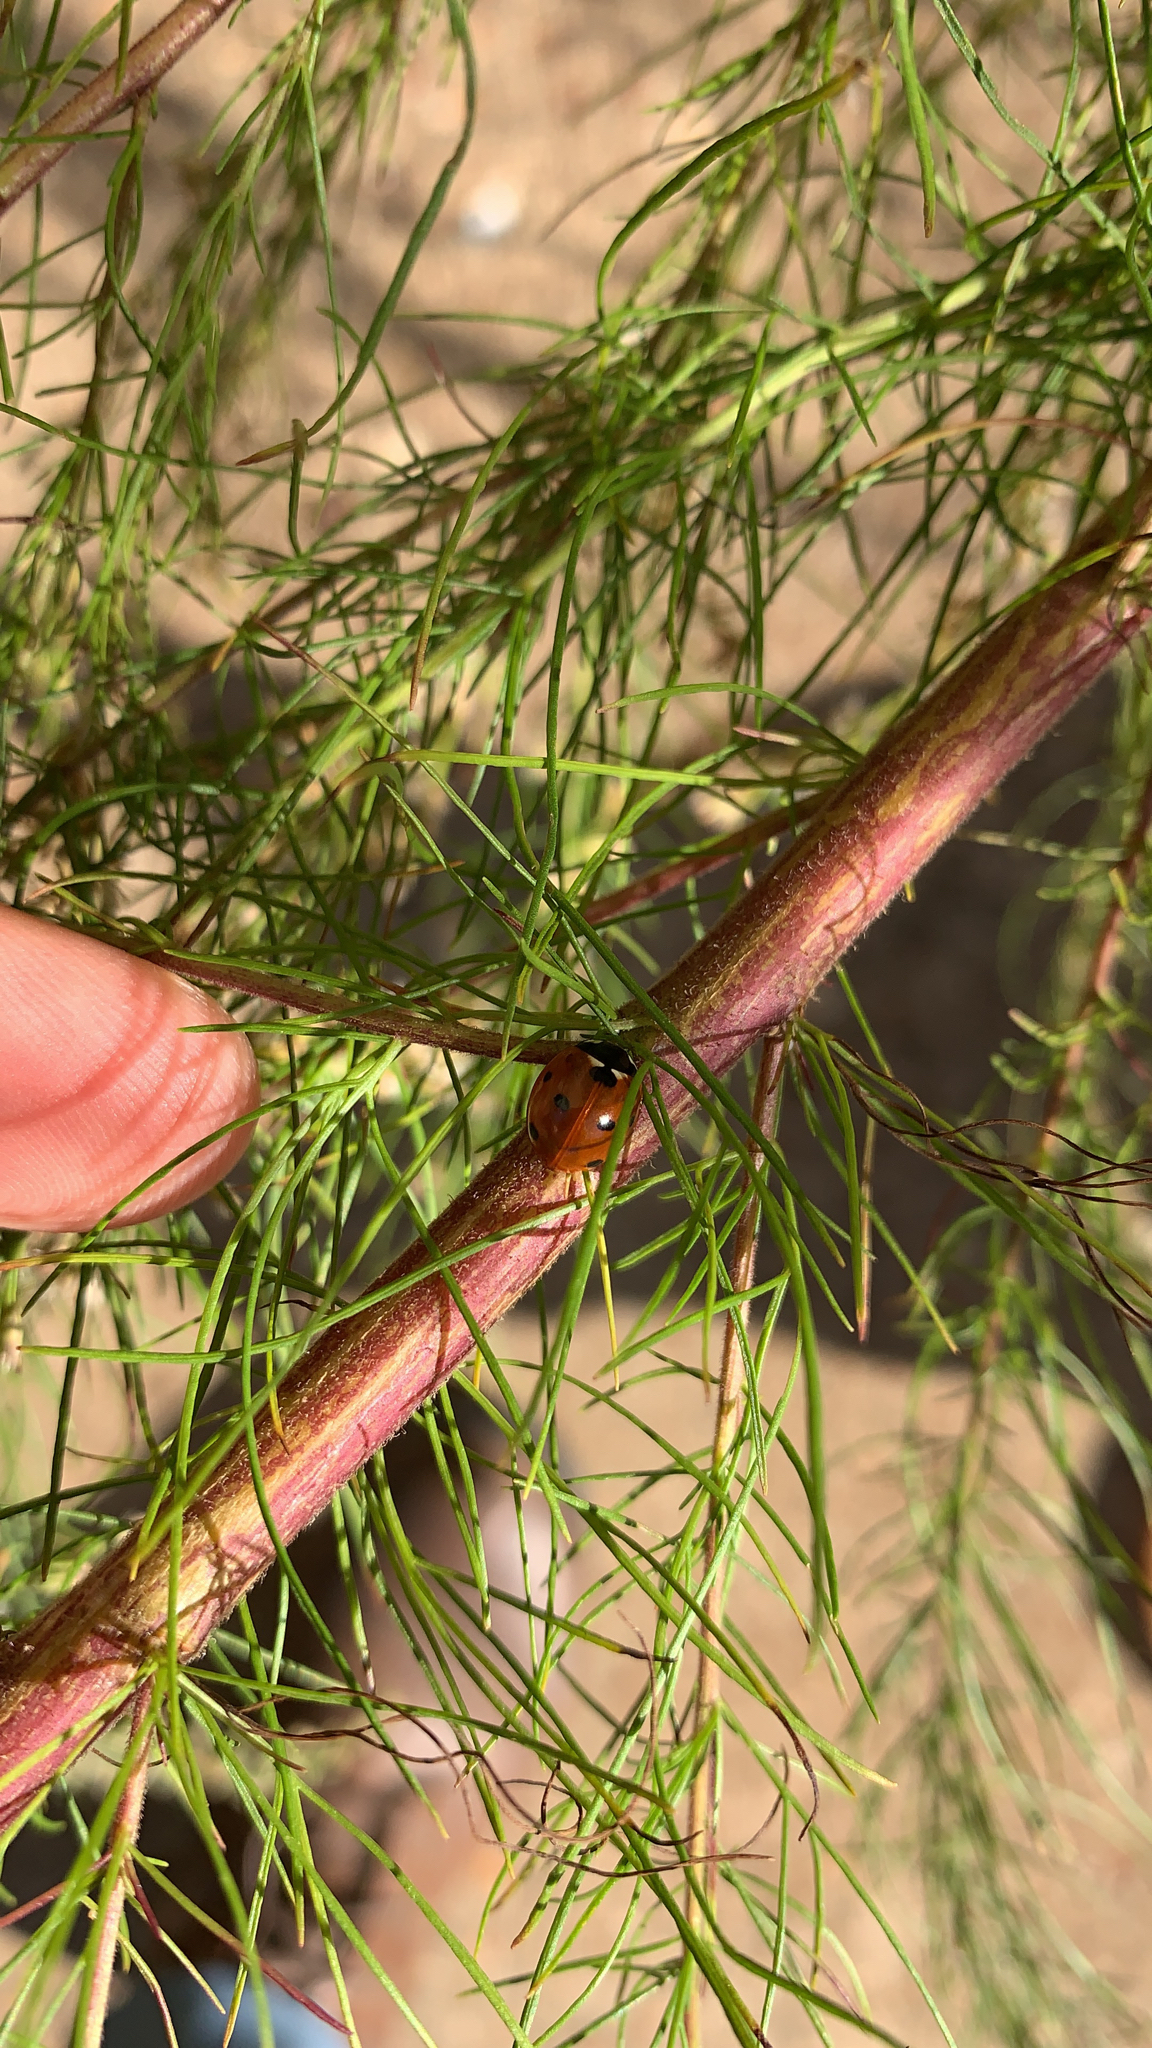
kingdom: Animalia
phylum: Arthropoda
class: Insecta
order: Coleoptera
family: Coccinellidae
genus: Coccinella
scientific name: Coccinella septempunctata
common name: Sevenspotted lady beetle
